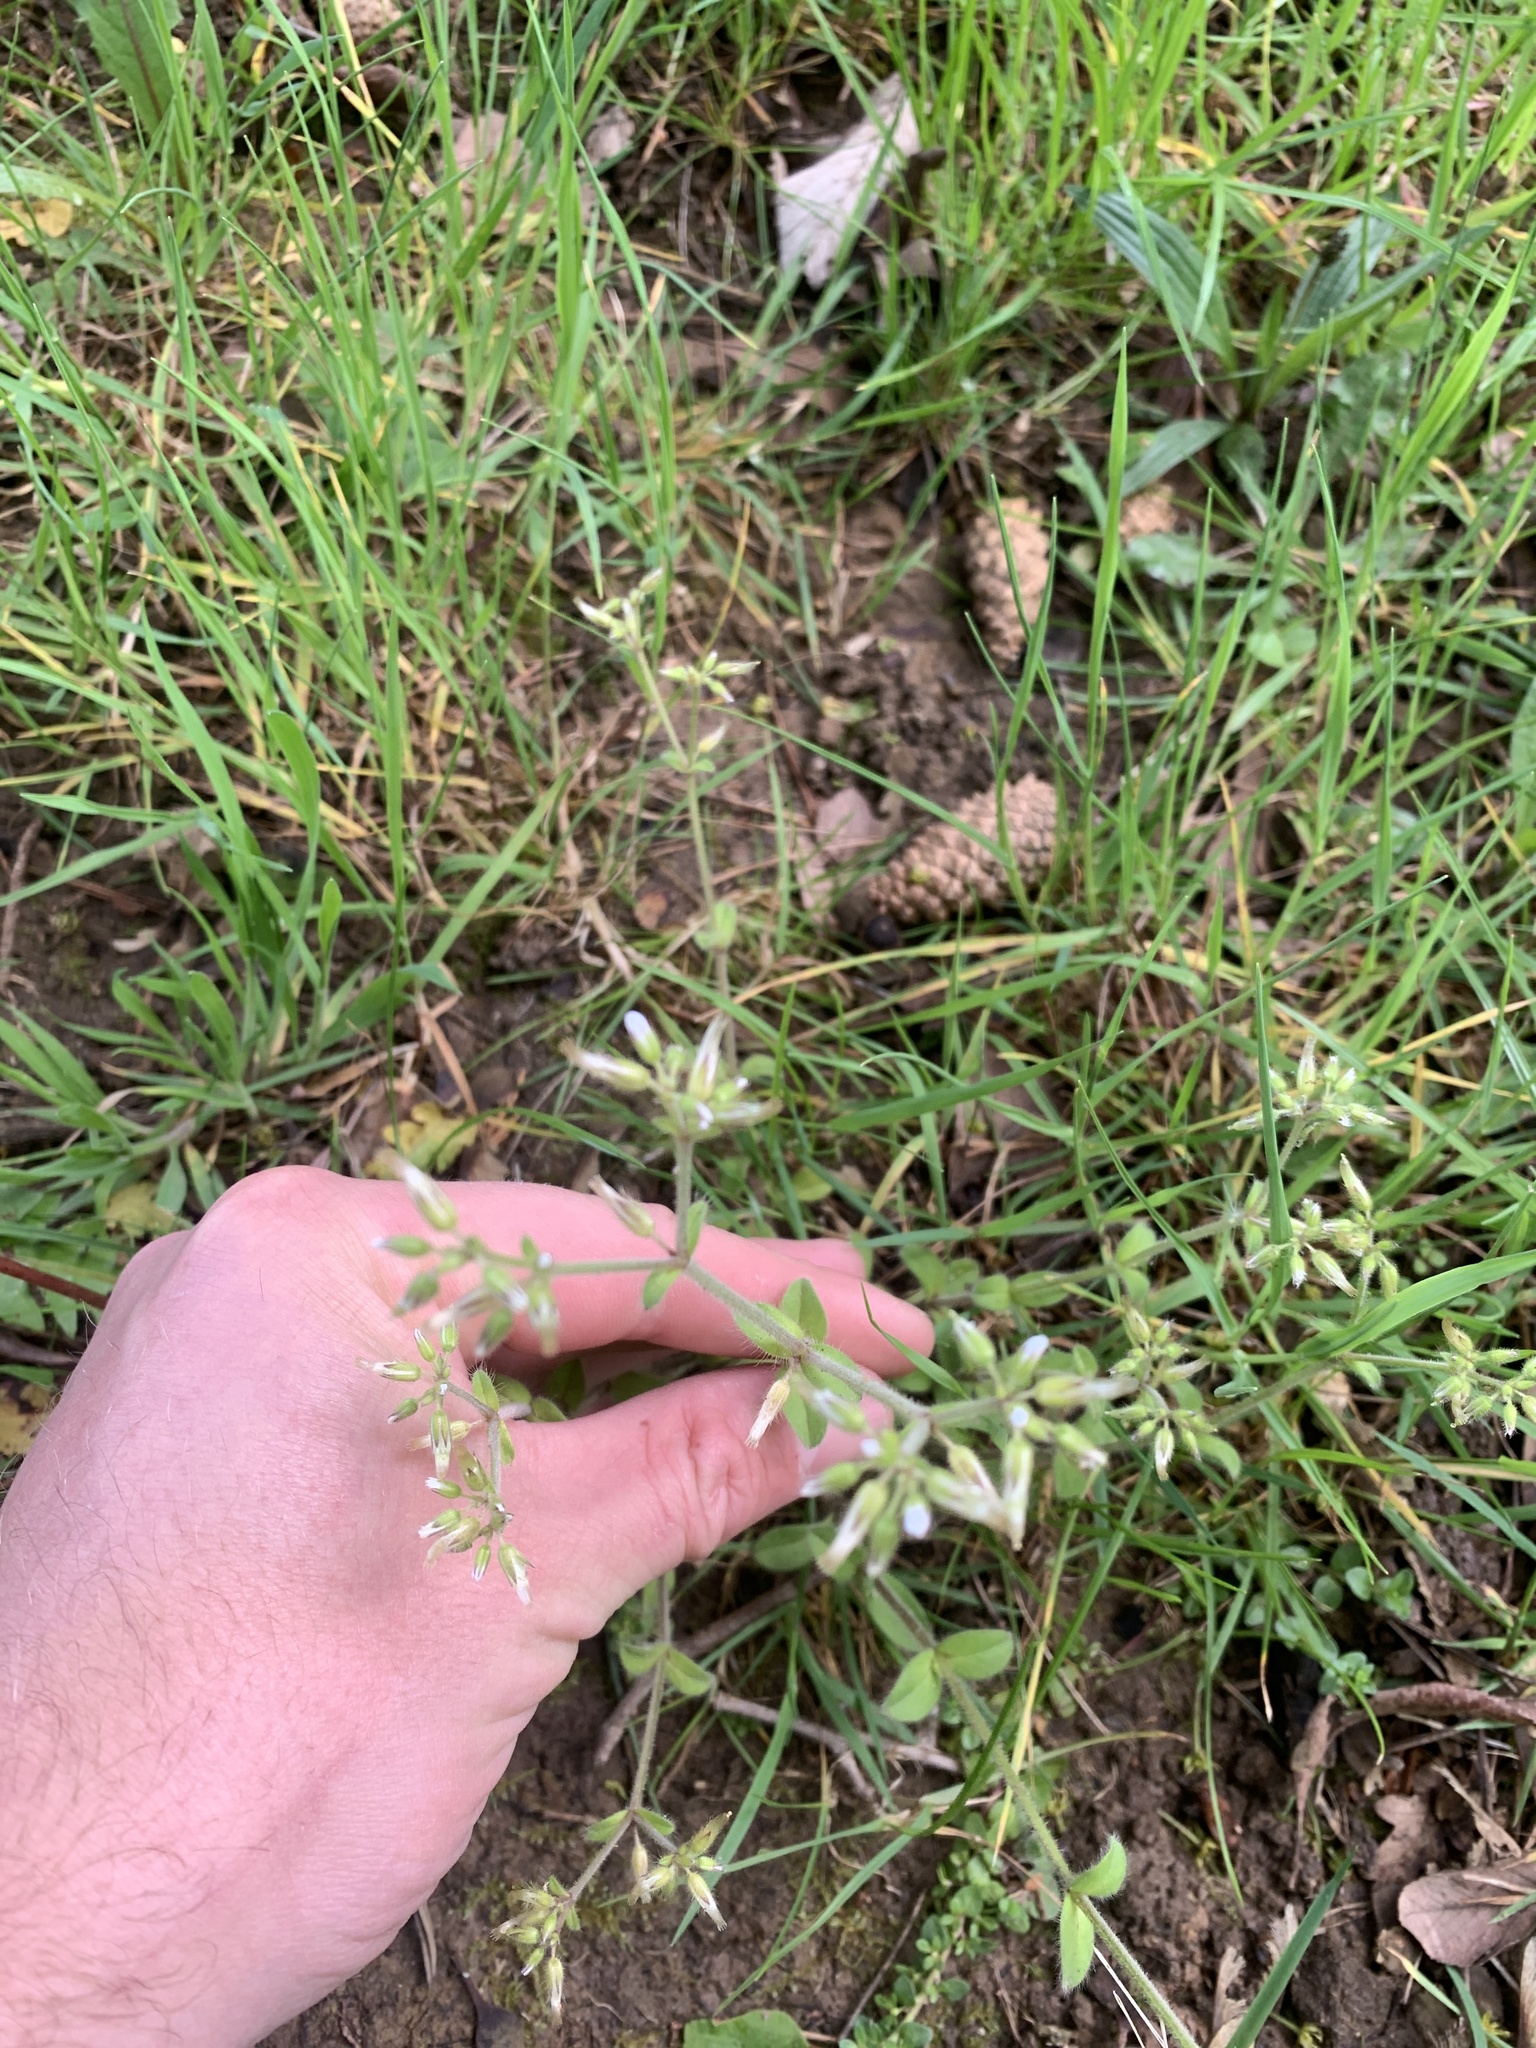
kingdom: Plantae
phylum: Tracheophyta
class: Magnoliopsida
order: Caryophyllales
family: Caryophyllaceae
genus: Cerastium
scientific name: Cerastium glomeratum
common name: Sticky chickweed
